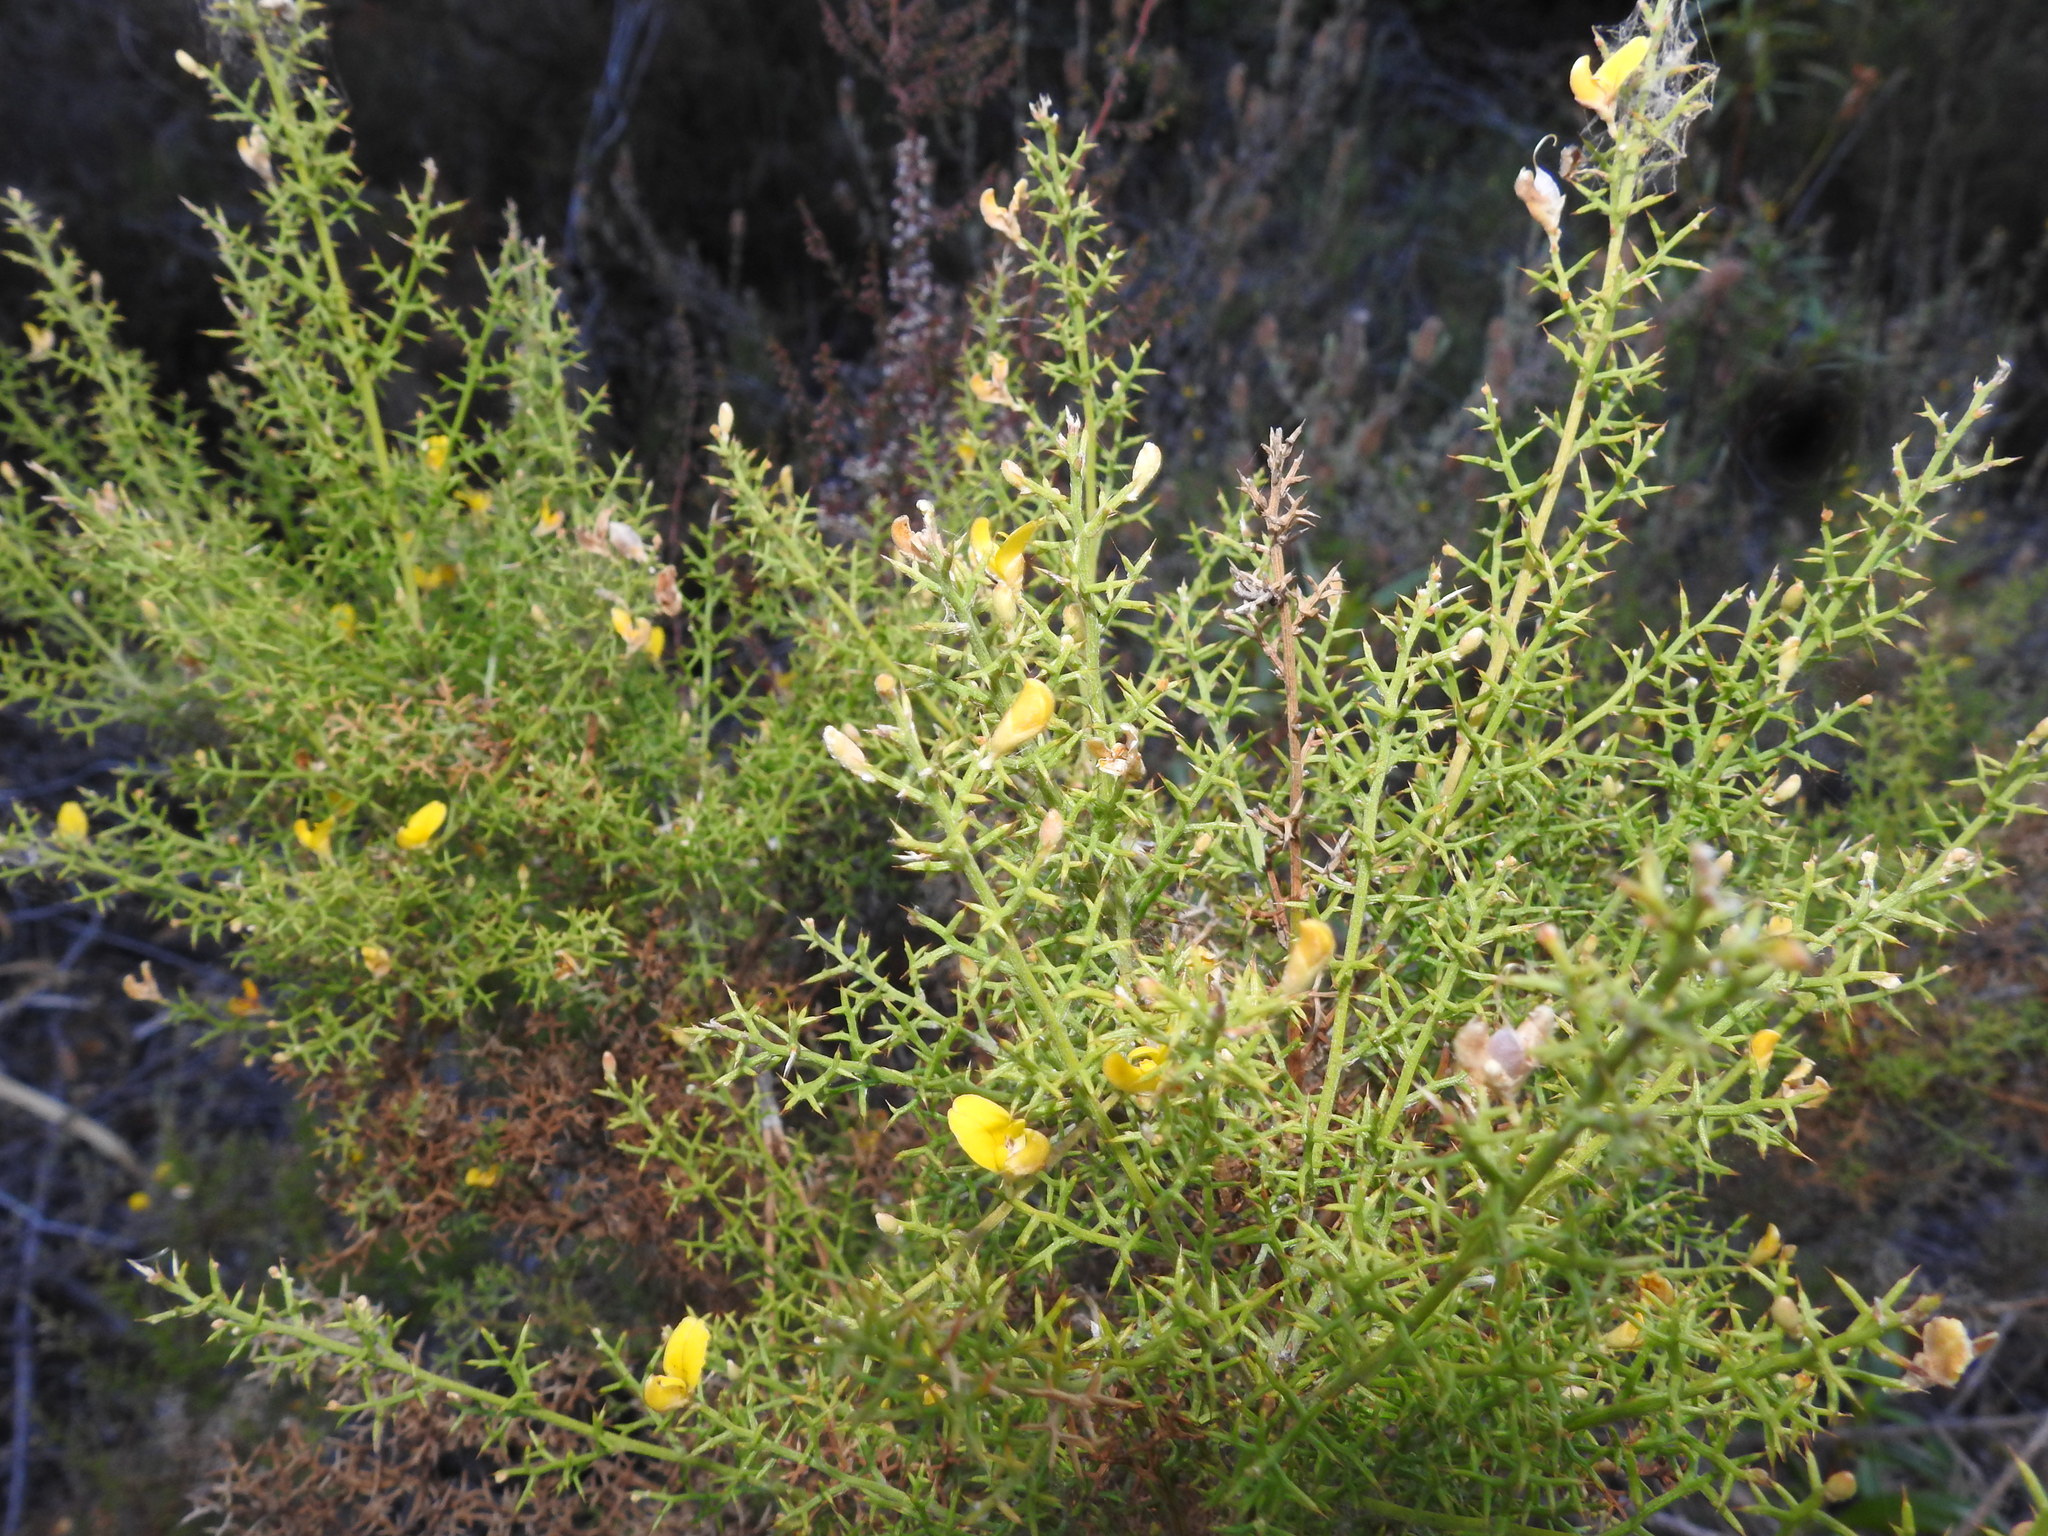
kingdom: Plantae
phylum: Tracheophyta
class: Magnoliopsida
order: Fabales
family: Fabaceae
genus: Stauracanthus
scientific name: Stauracanthus boivinii
